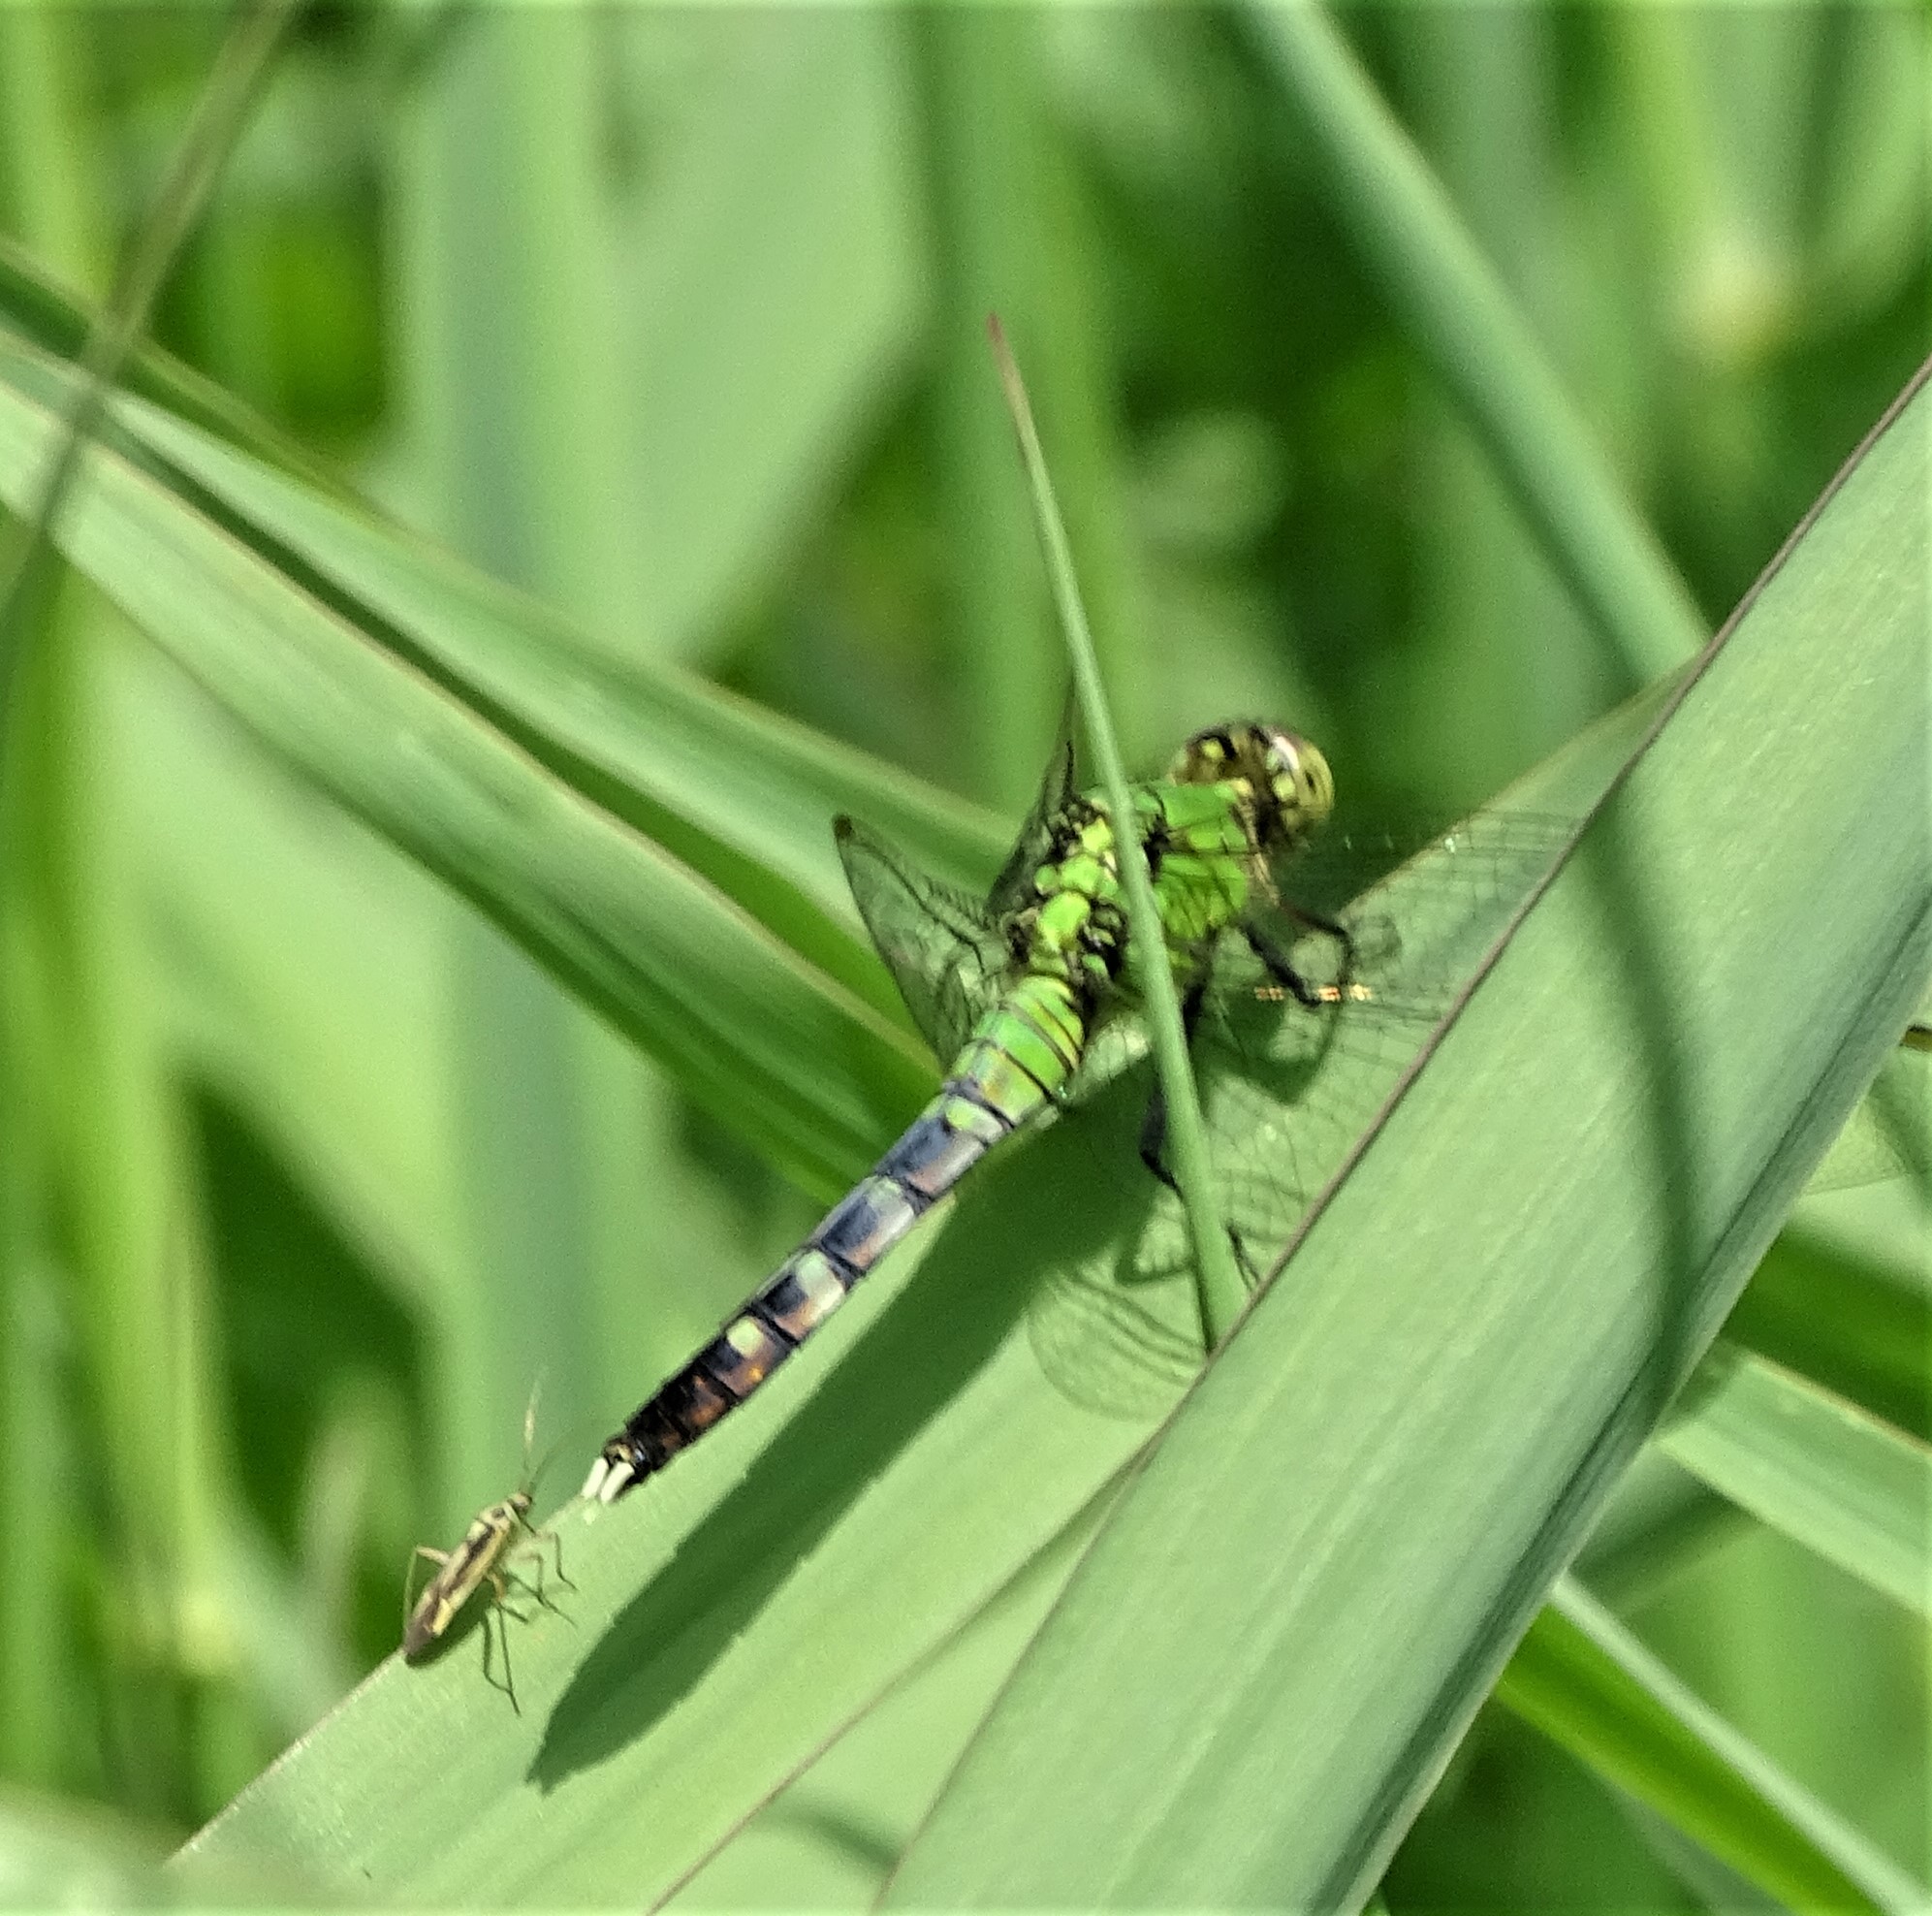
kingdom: Animalia
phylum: Arthropoda
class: Insecta
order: Odonata
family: Libellulidae
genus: Erythemis
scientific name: Erythemis simplicicollis
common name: Eastern pondhawk
